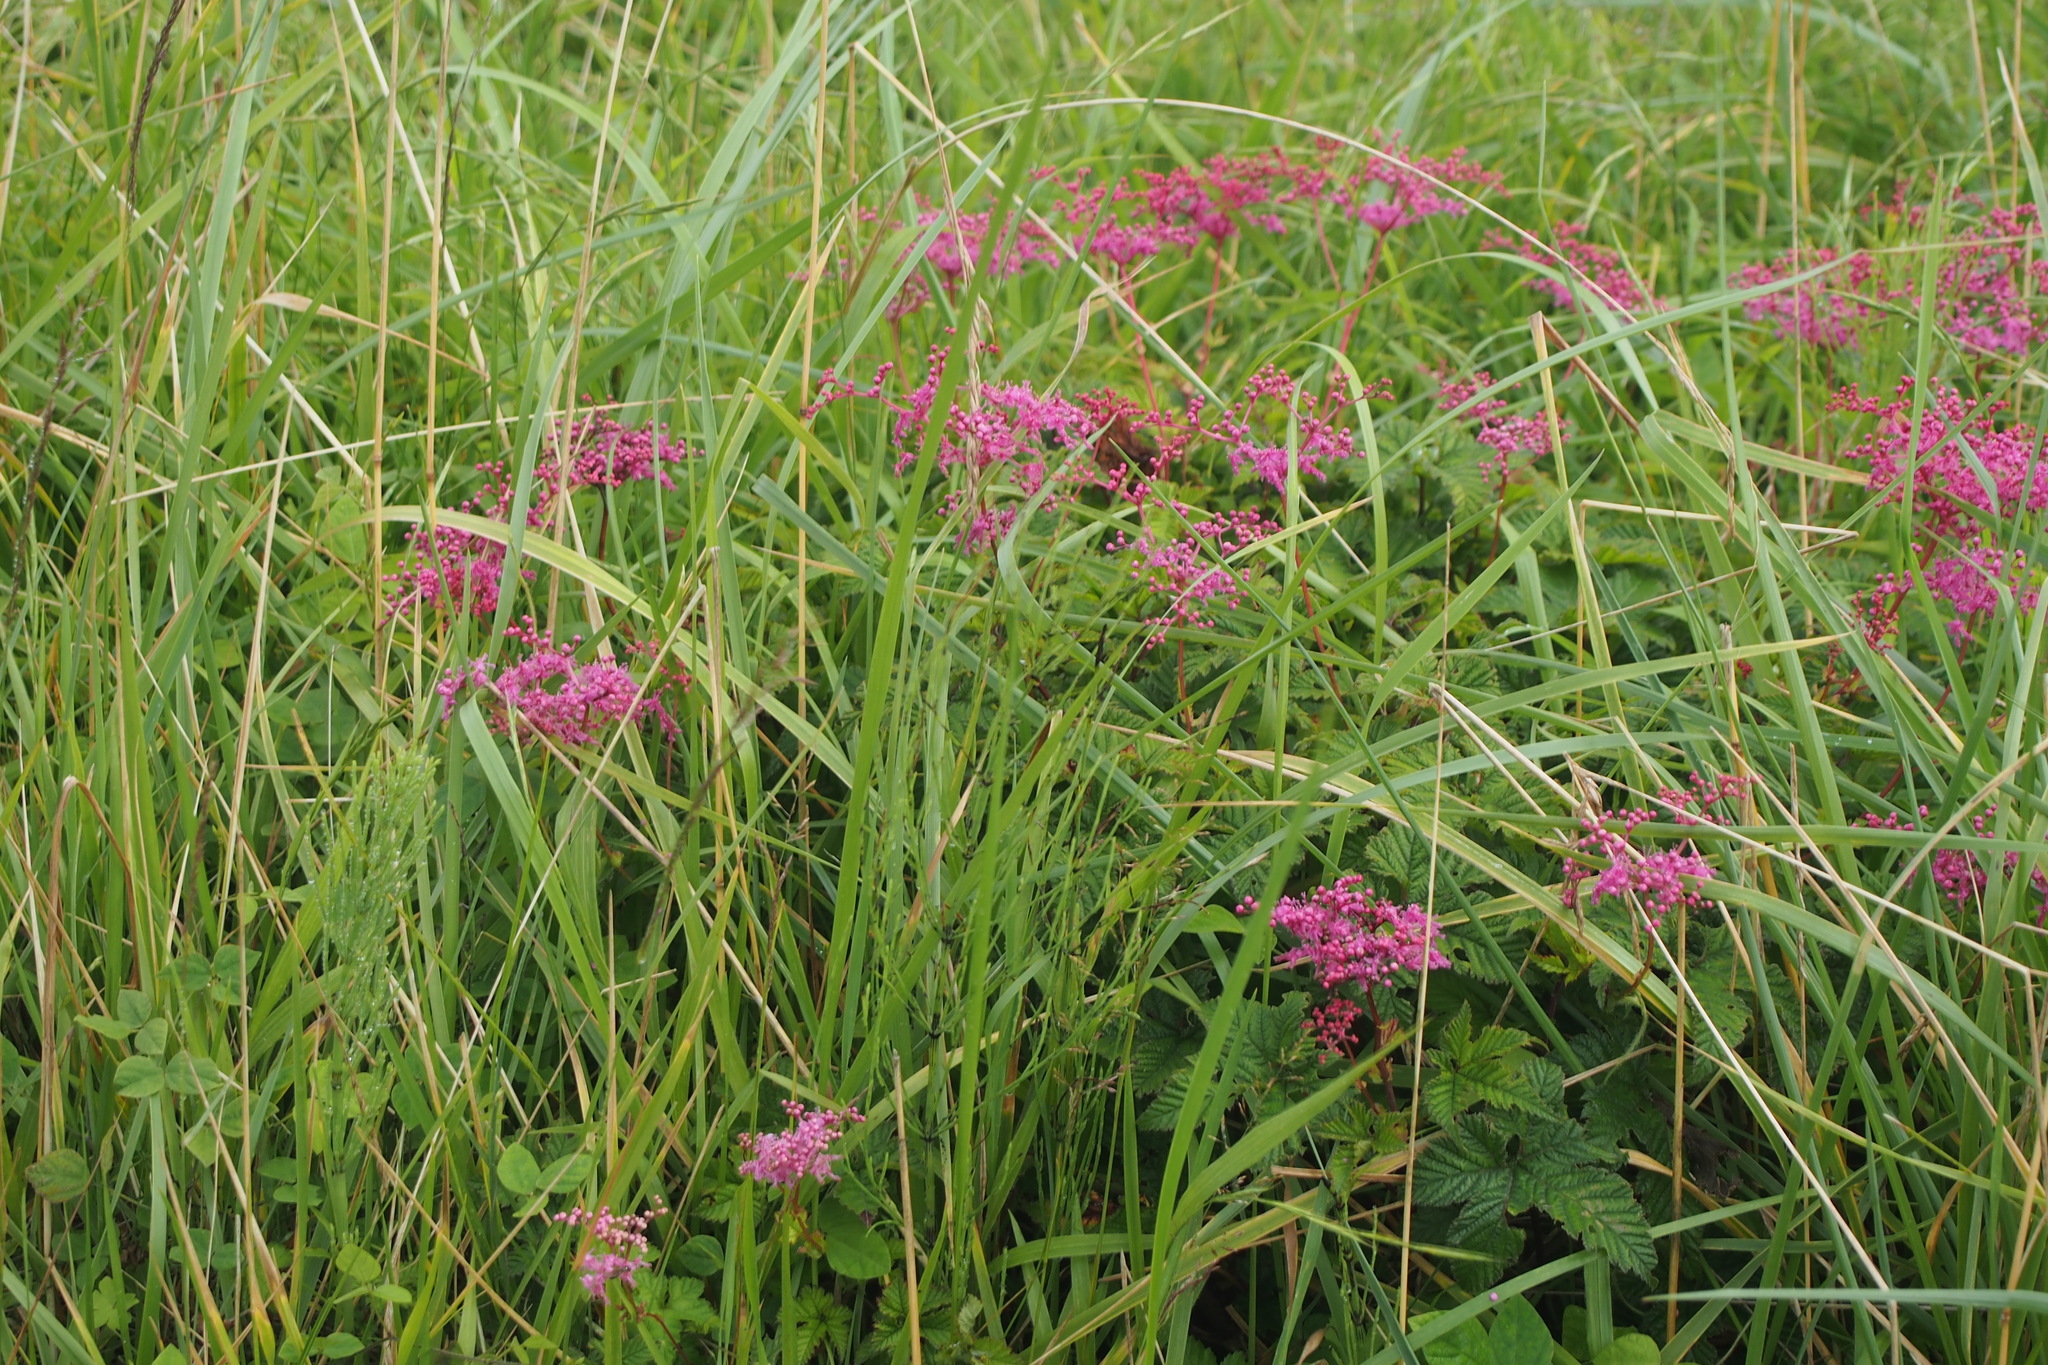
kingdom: Plantae
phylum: Tracheophyta
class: Magnoliopsida
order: Rosales
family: Rosaceae
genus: Filipendula
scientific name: Filipendula multijuga
